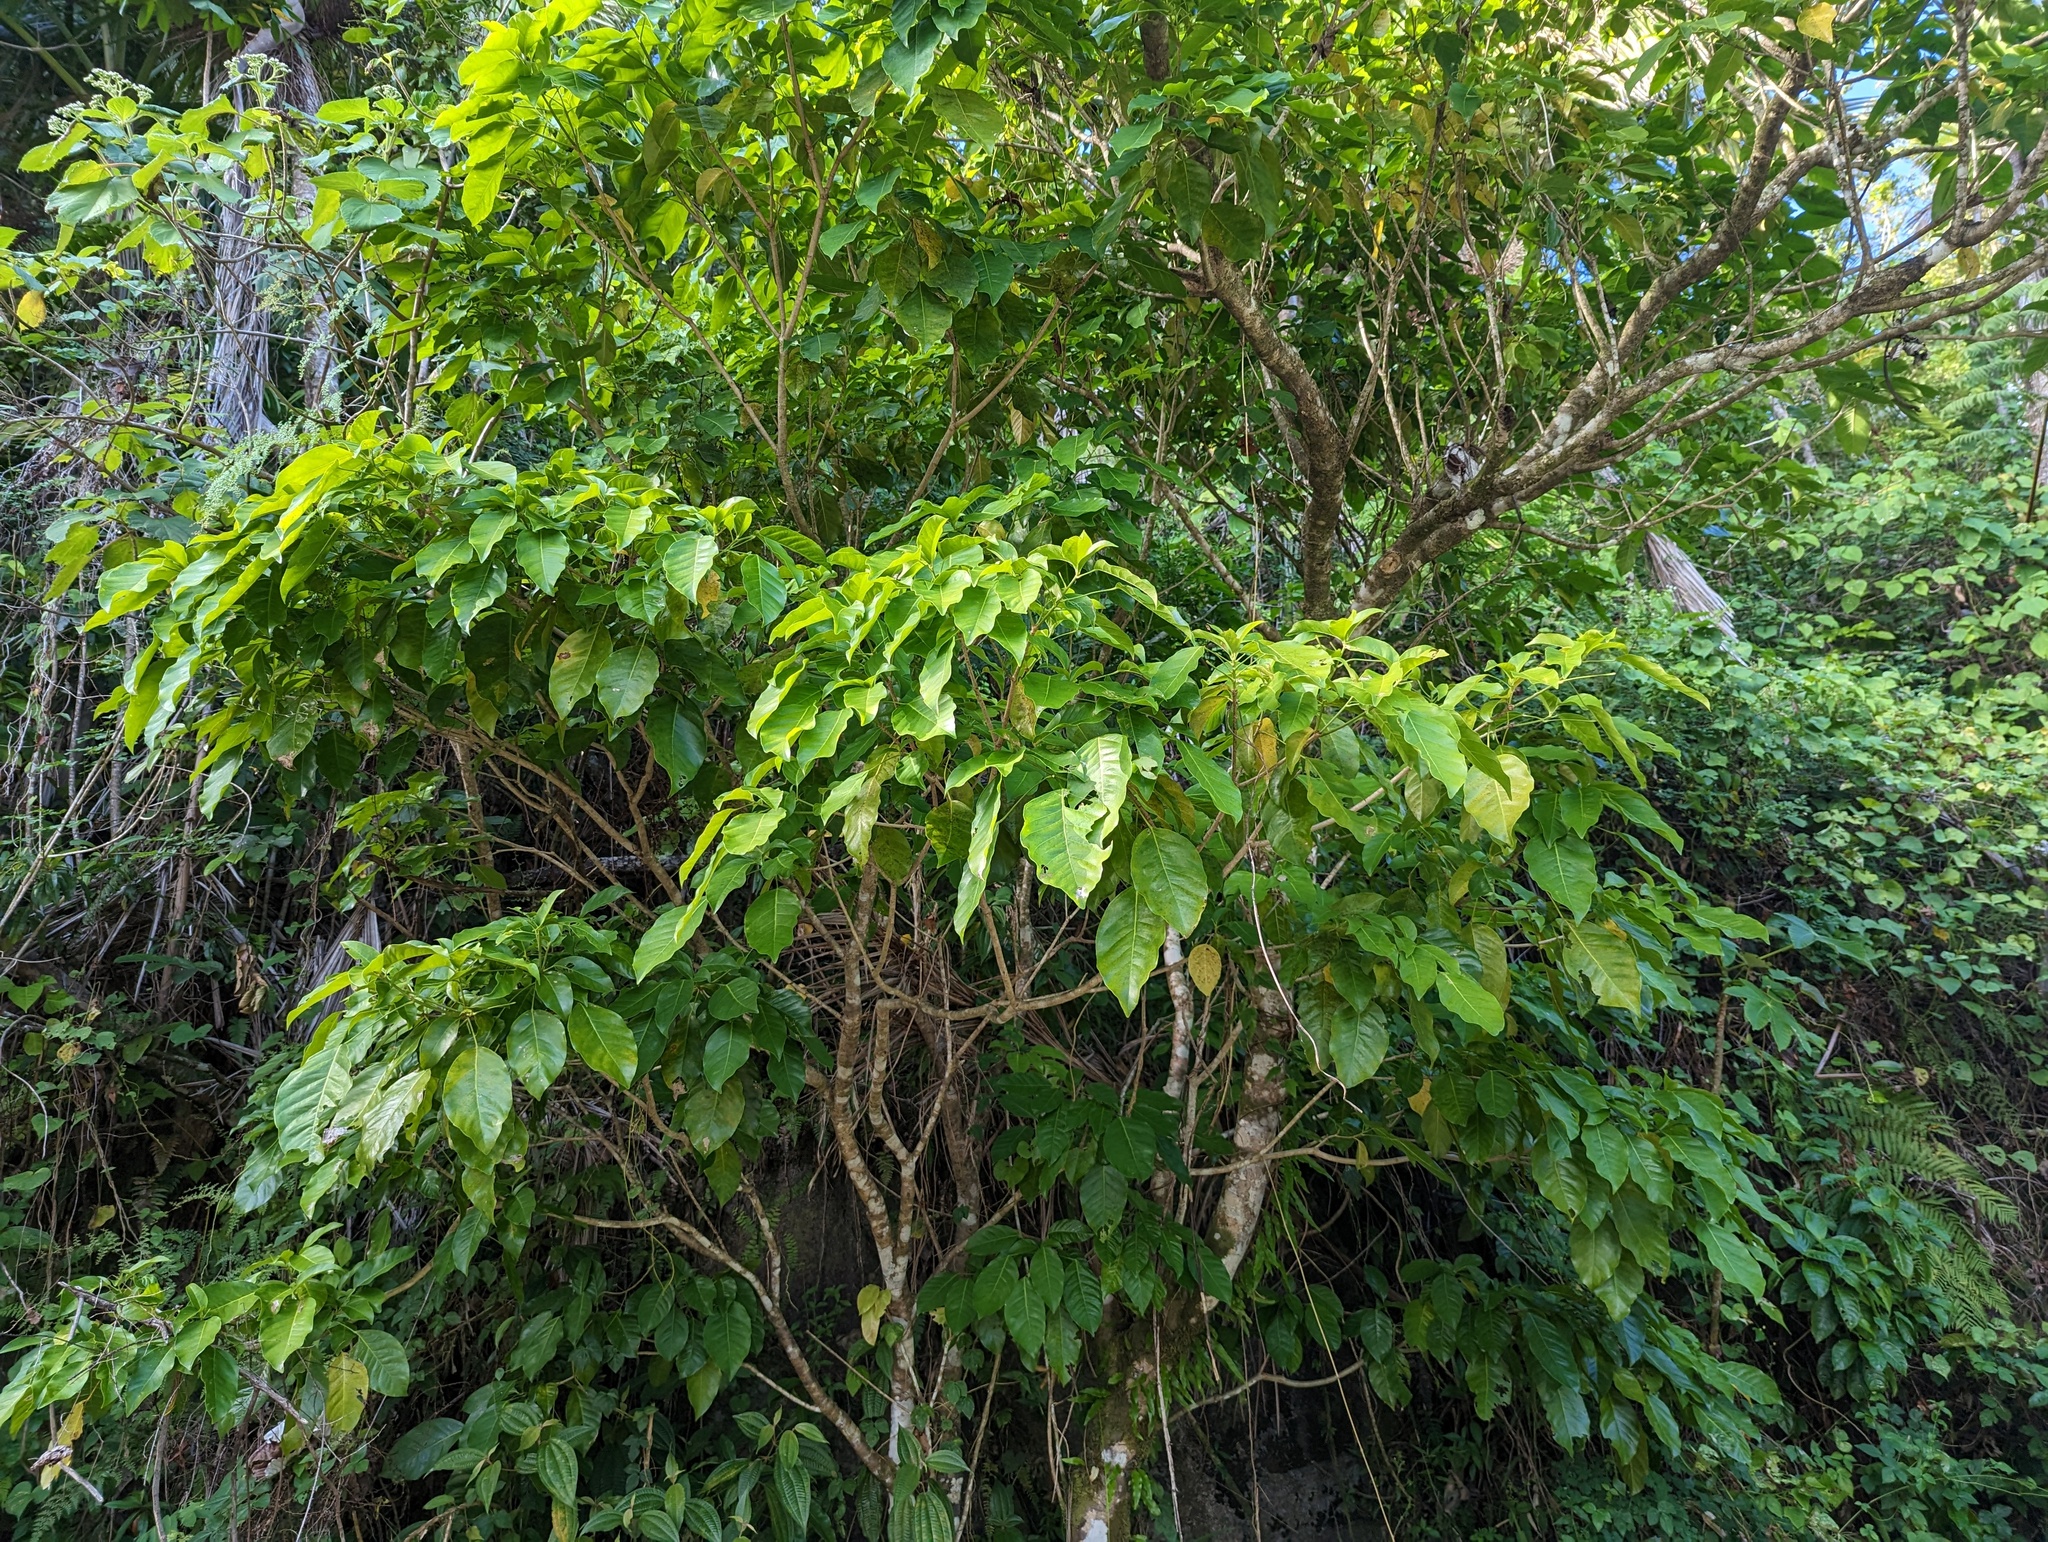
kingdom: Plantae
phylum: Tracheophyta
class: Magnoliopsida
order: Apiales
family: Araliaceae
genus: Dendropanax
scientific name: Dendropanax arboreus
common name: Potato-wood
